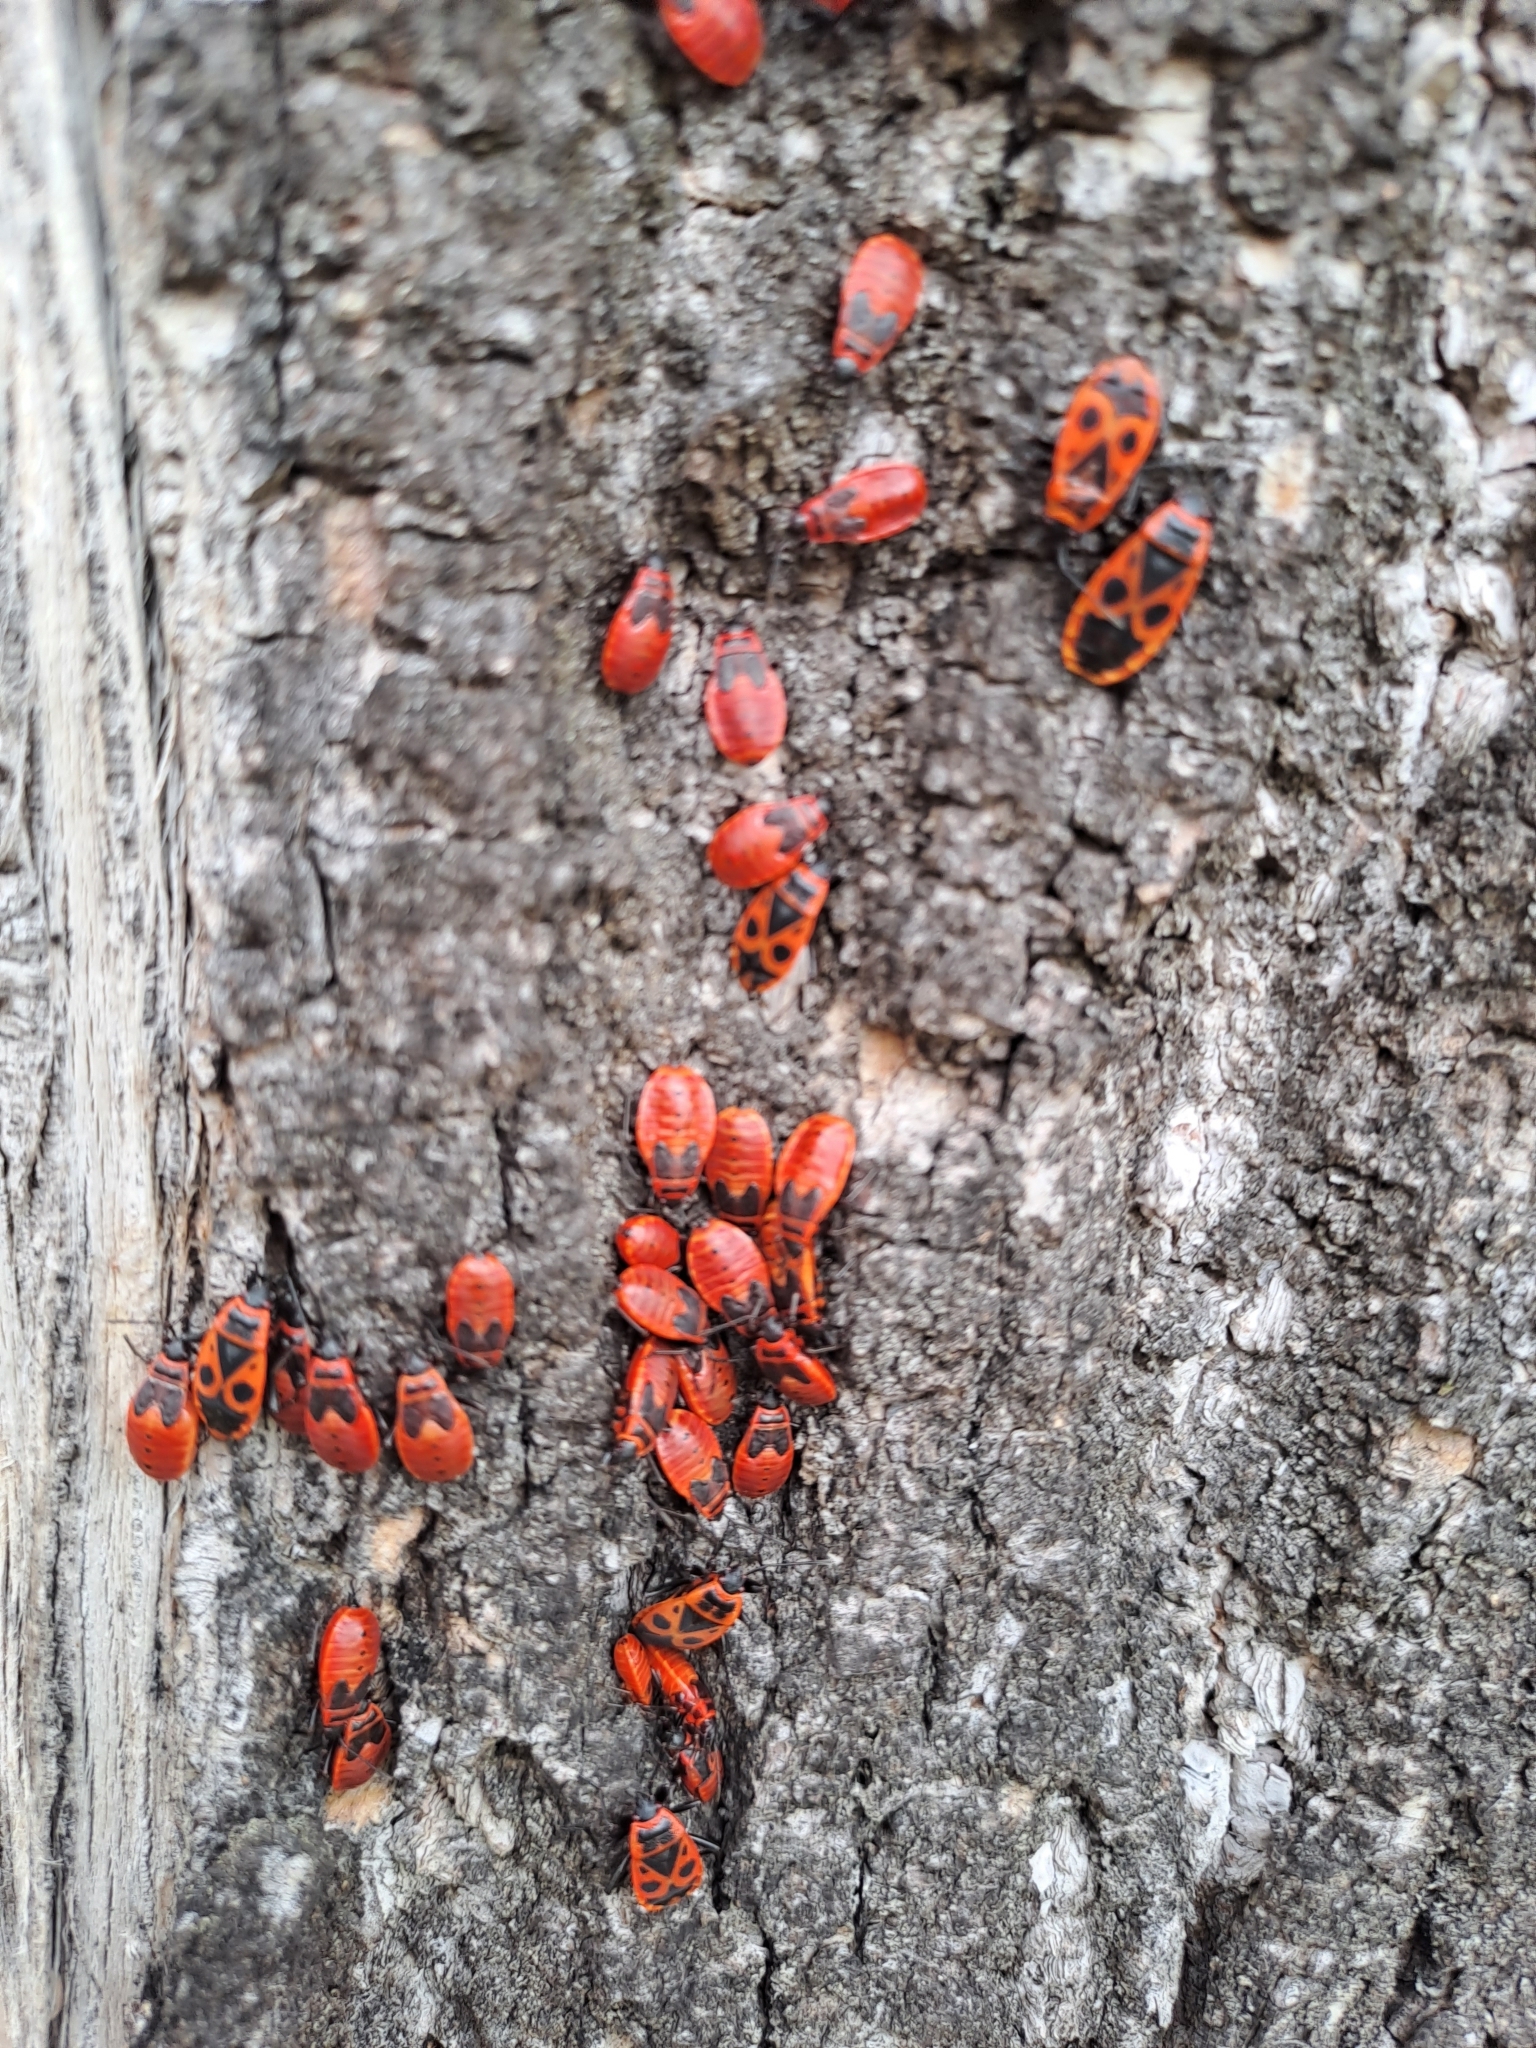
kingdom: Animalia
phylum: Arthropoda
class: Insecta
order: Hemiptera
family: Pyrrhocoridae
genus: Pyrrhocoris
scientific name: Pyrrhocoris apterus
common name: Firebug
